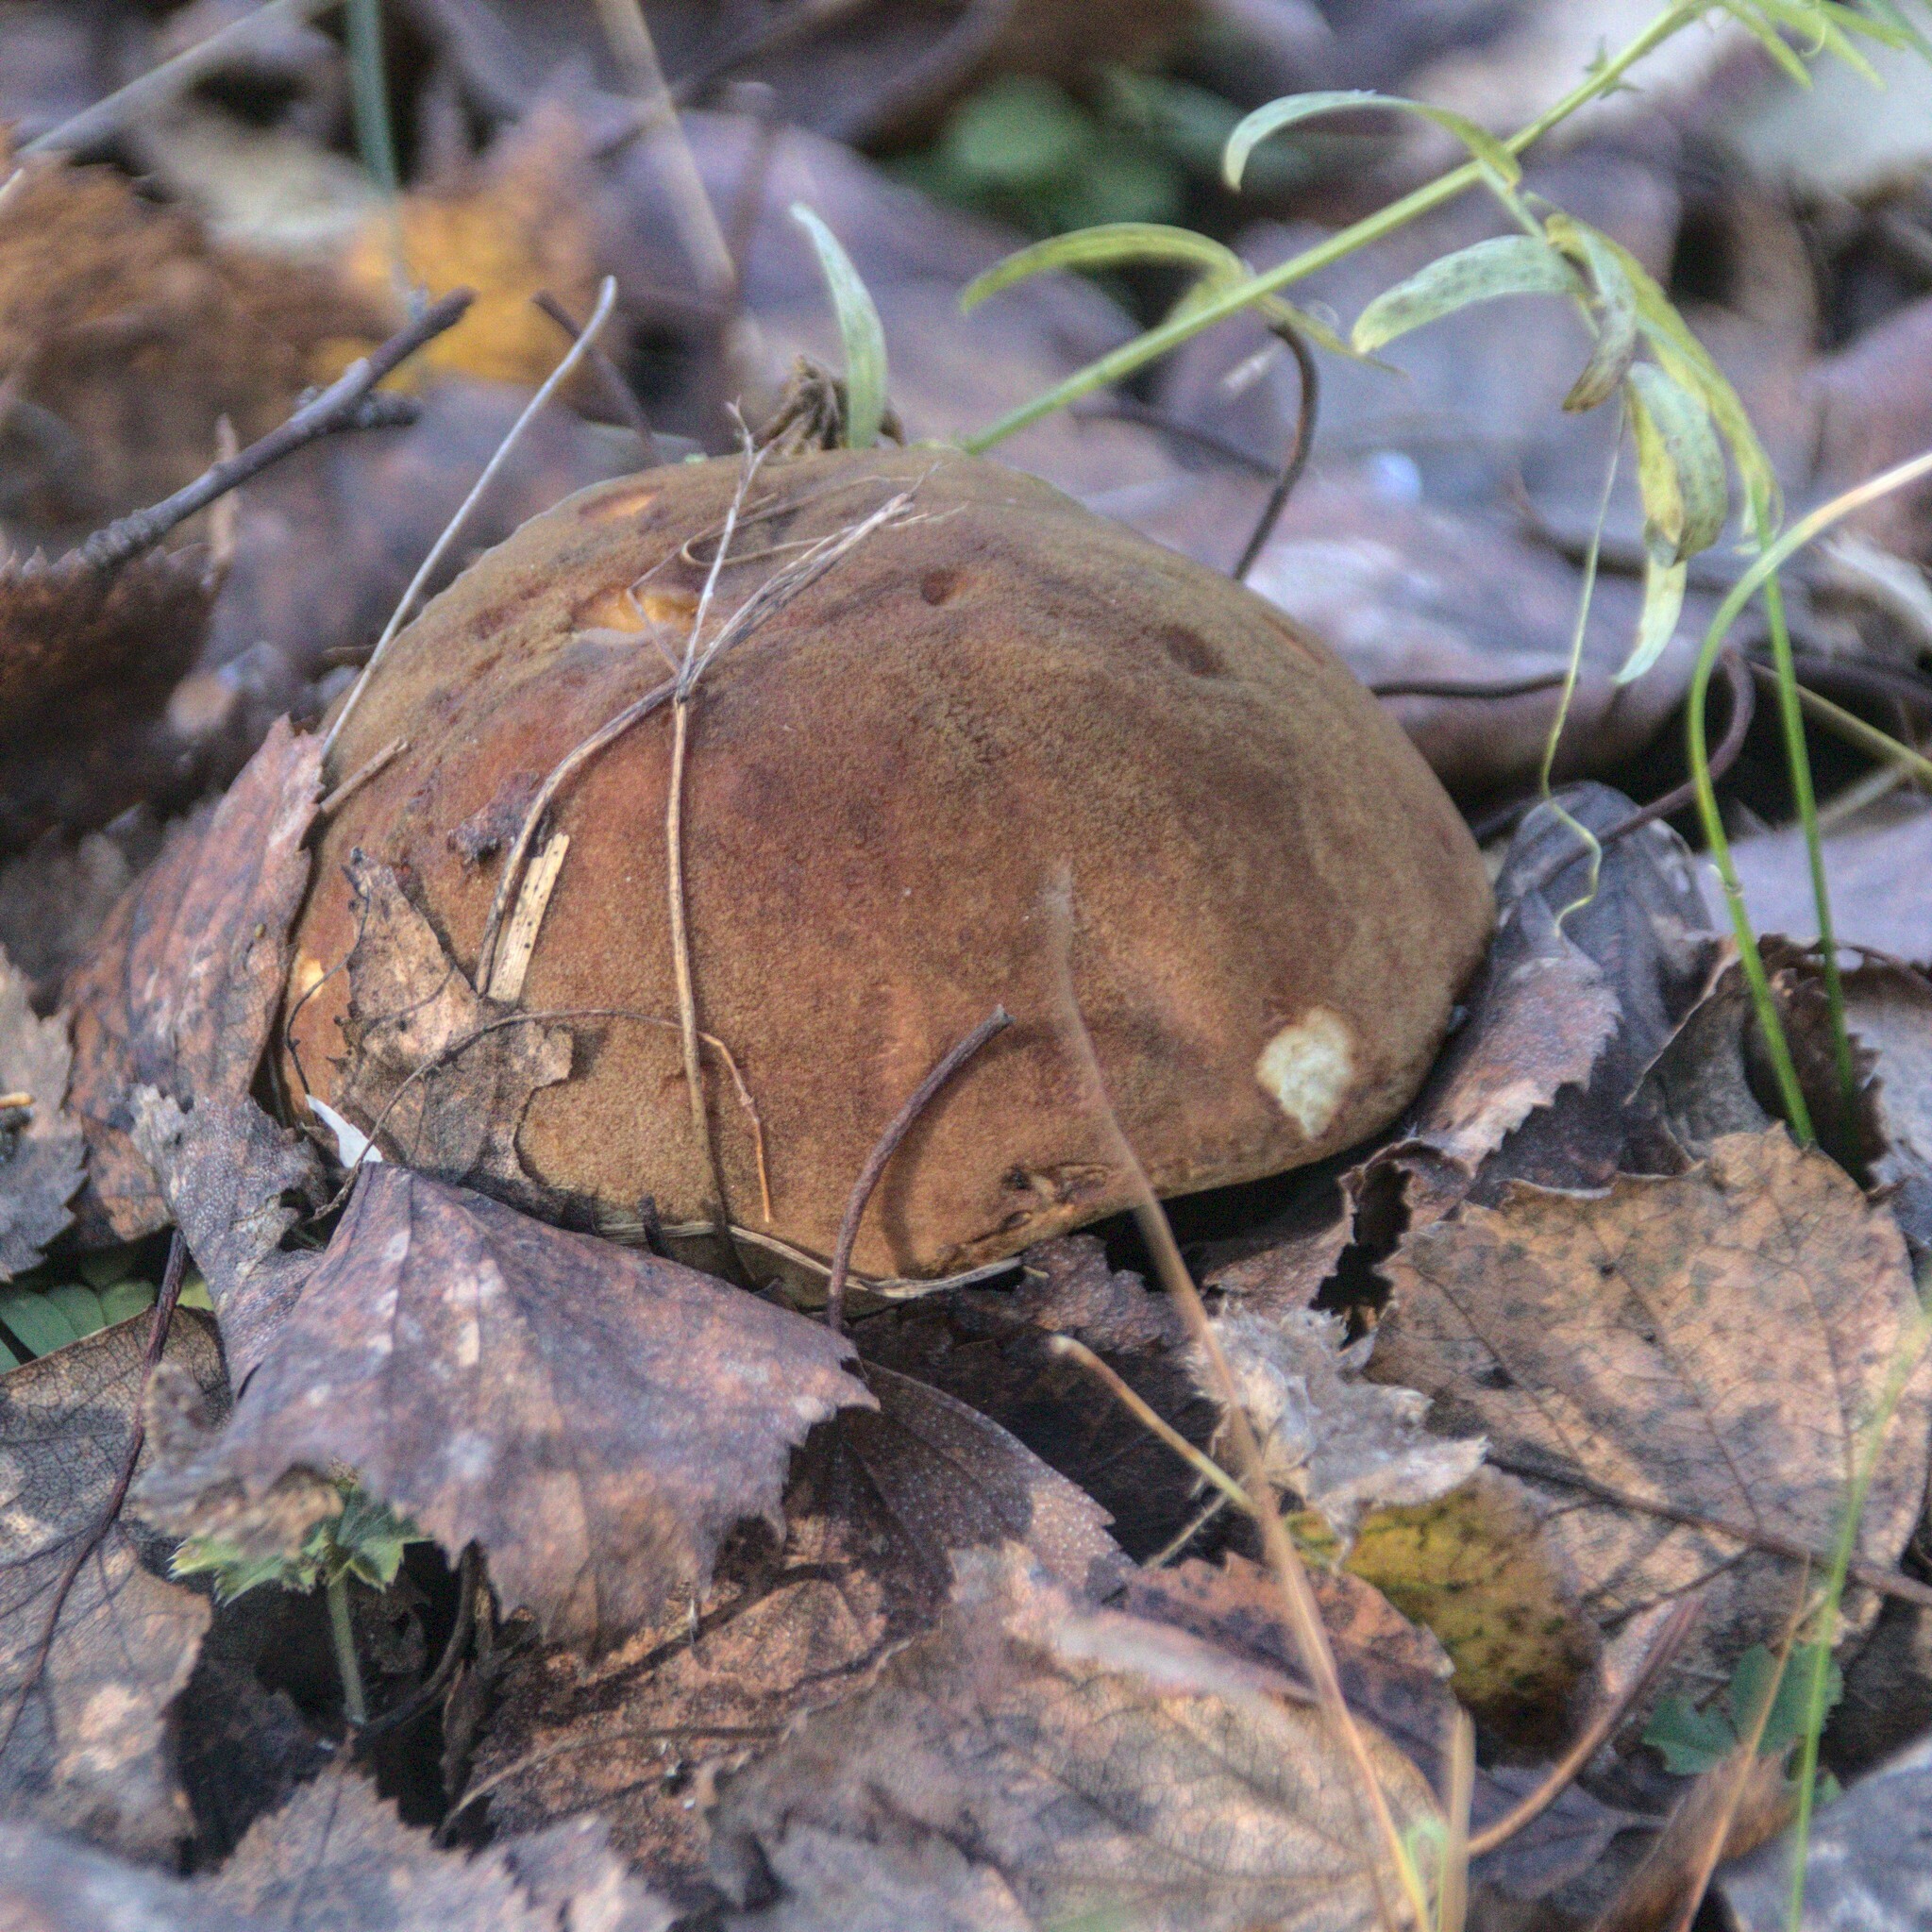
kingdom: Fungi
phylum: Basidiomycota
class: Agaricomycetes
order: Boletales
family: Boletaceae
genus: Xerocomus
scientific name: Xerocomus subtomentosus
